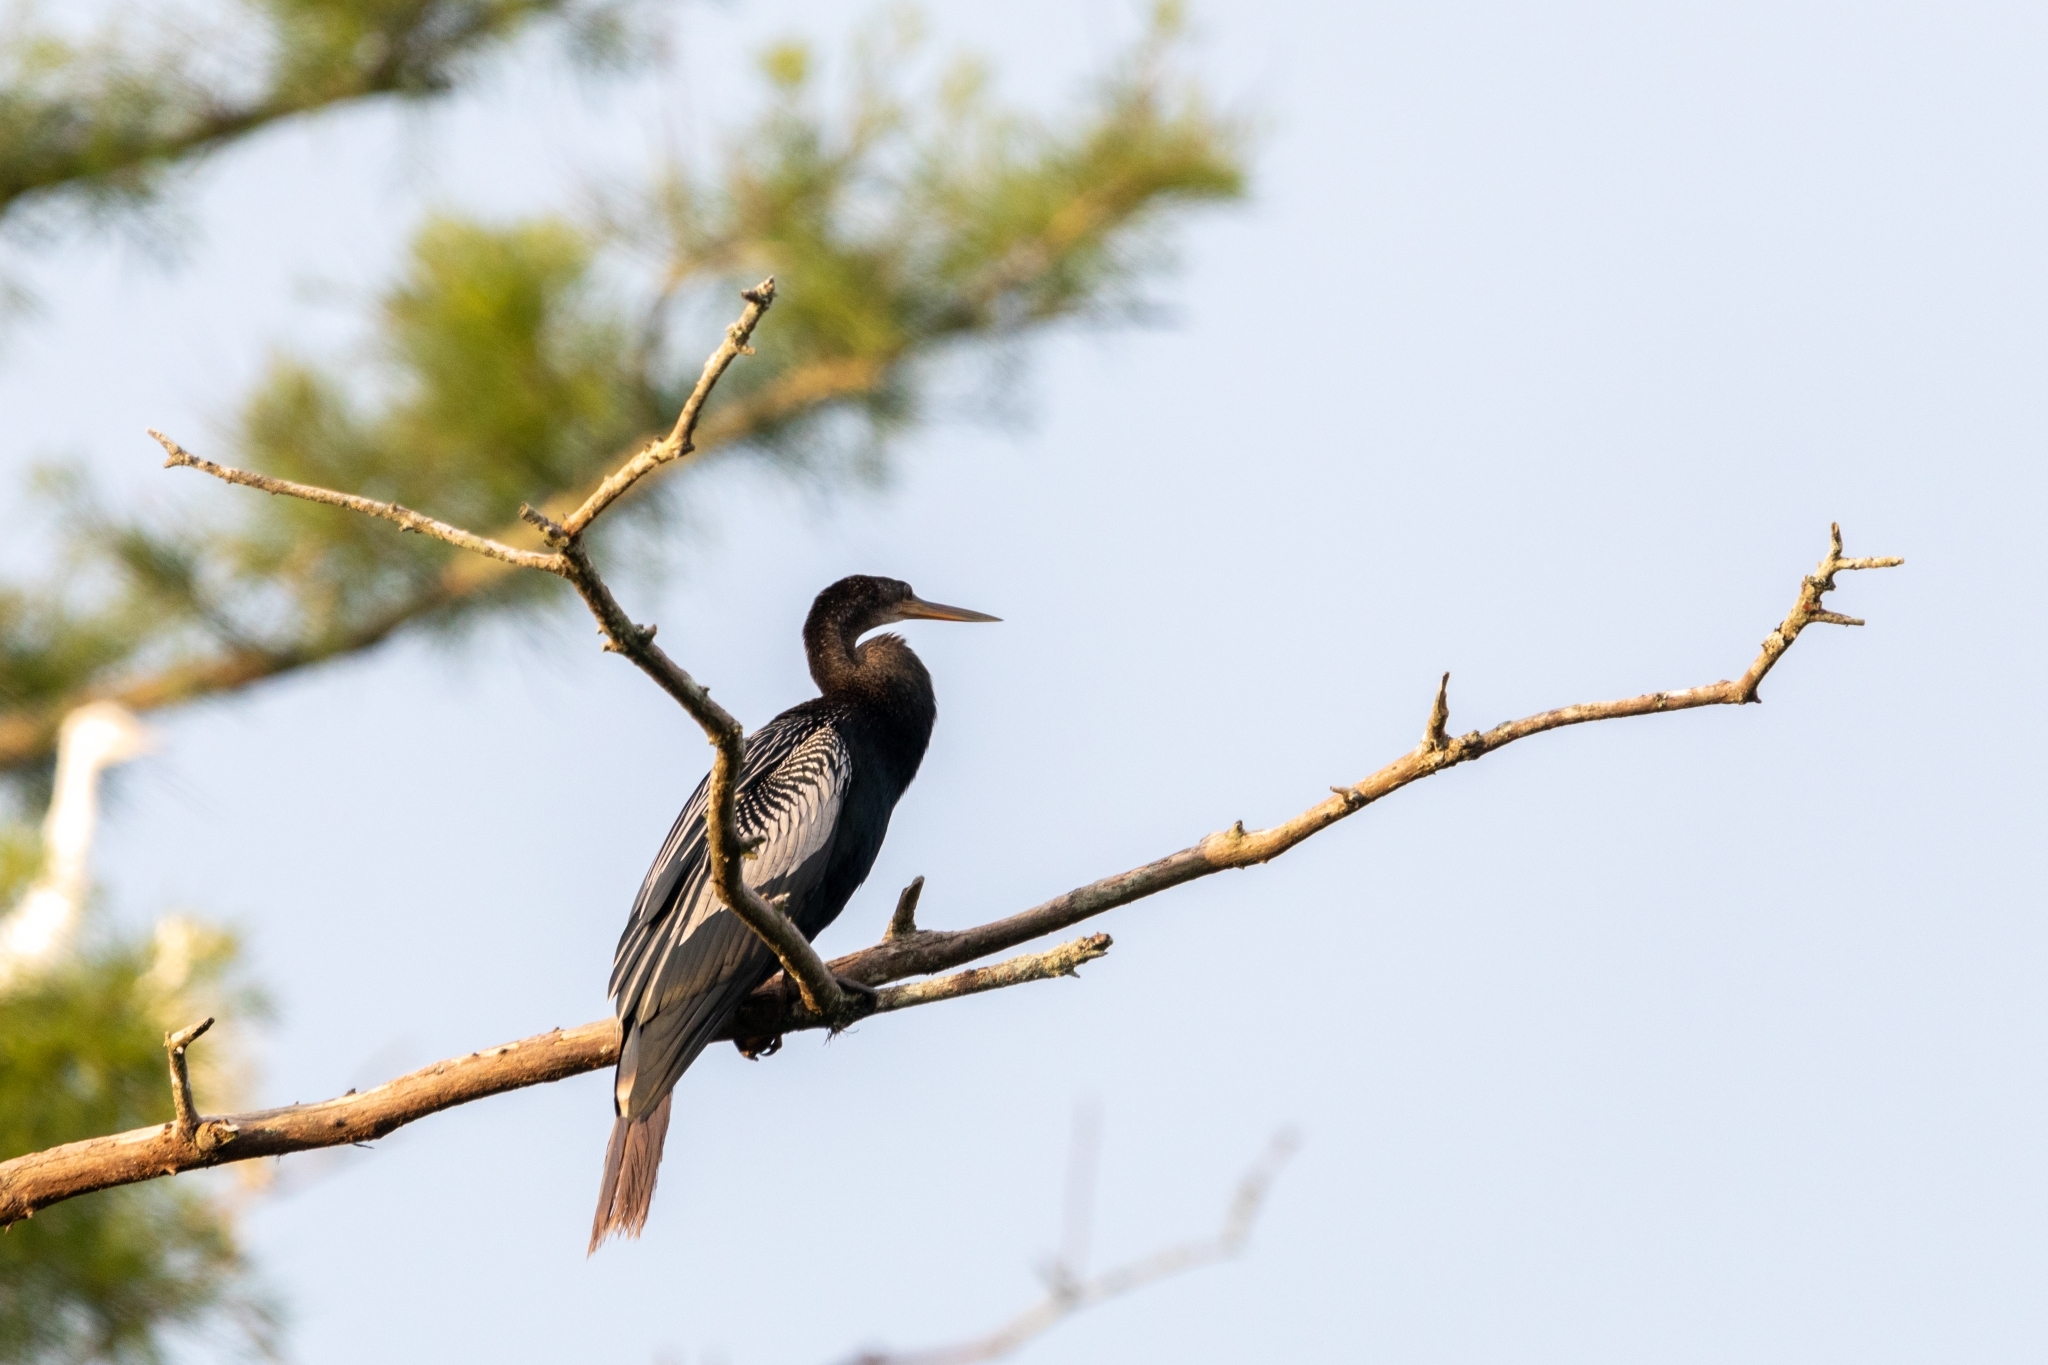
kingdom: Animalia
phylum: Chordata
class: Aves
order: Suliformes
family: Anhingidae
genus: Anhinga
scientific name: Anhinga anhinga
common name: Anhinga
